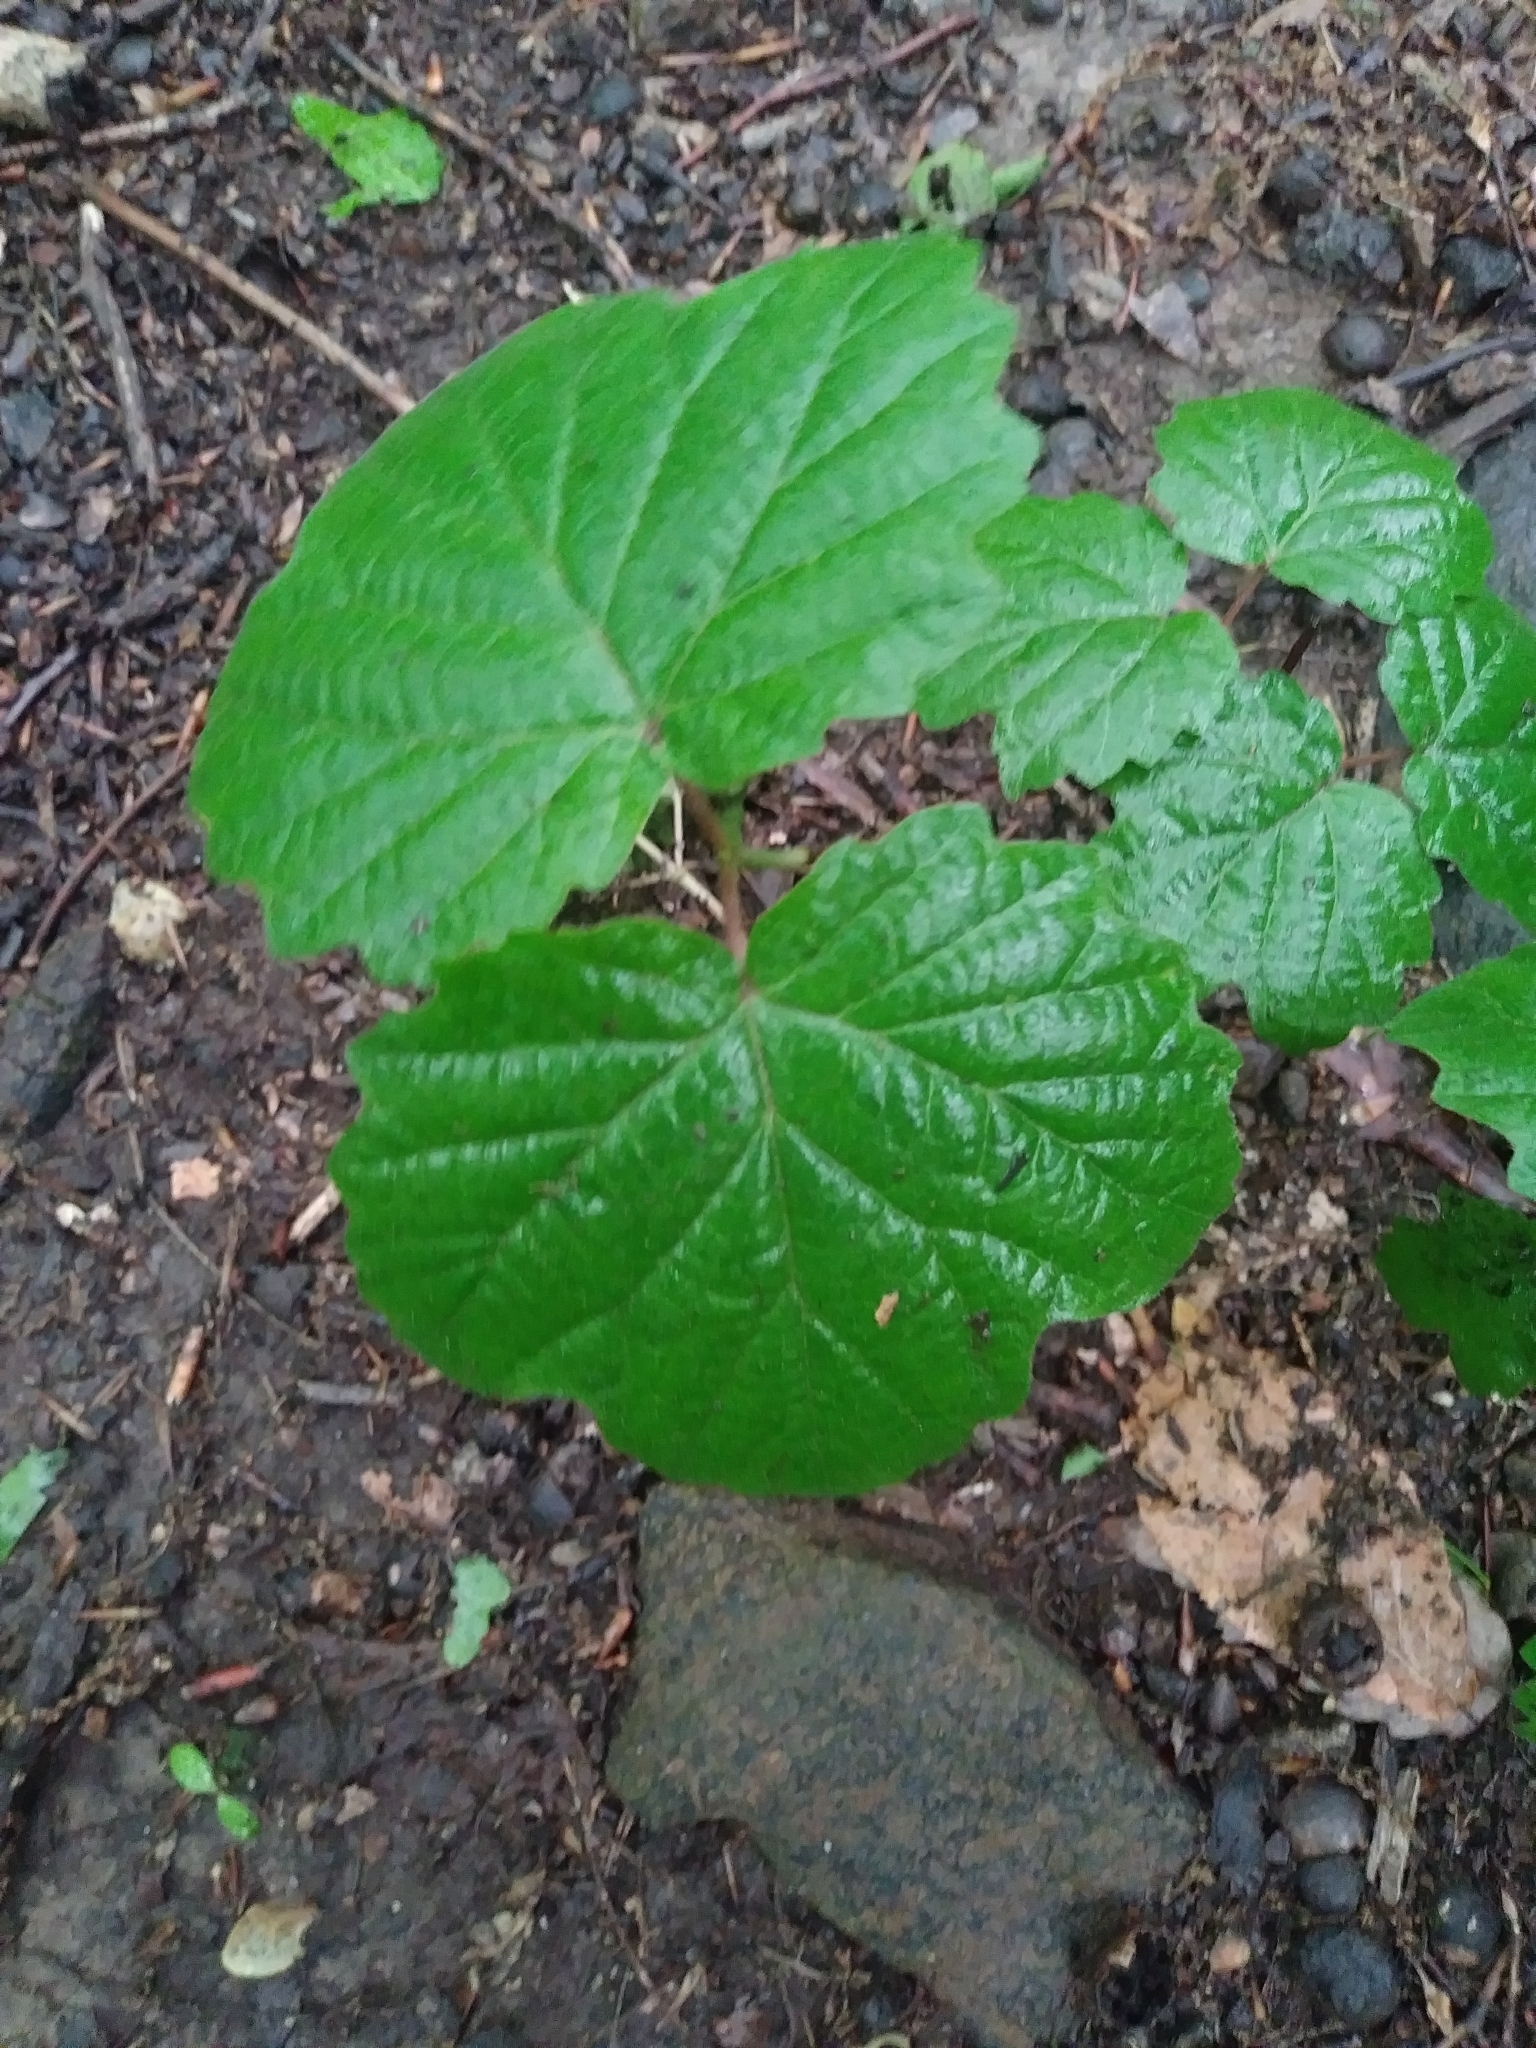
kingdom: Plantae
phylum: Tracheophyta
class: Magnoliopsida
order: Dipsacales
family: Viburnaceae
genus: Viburnum
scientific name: Viburnum acerifolium
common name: Dockmackie
